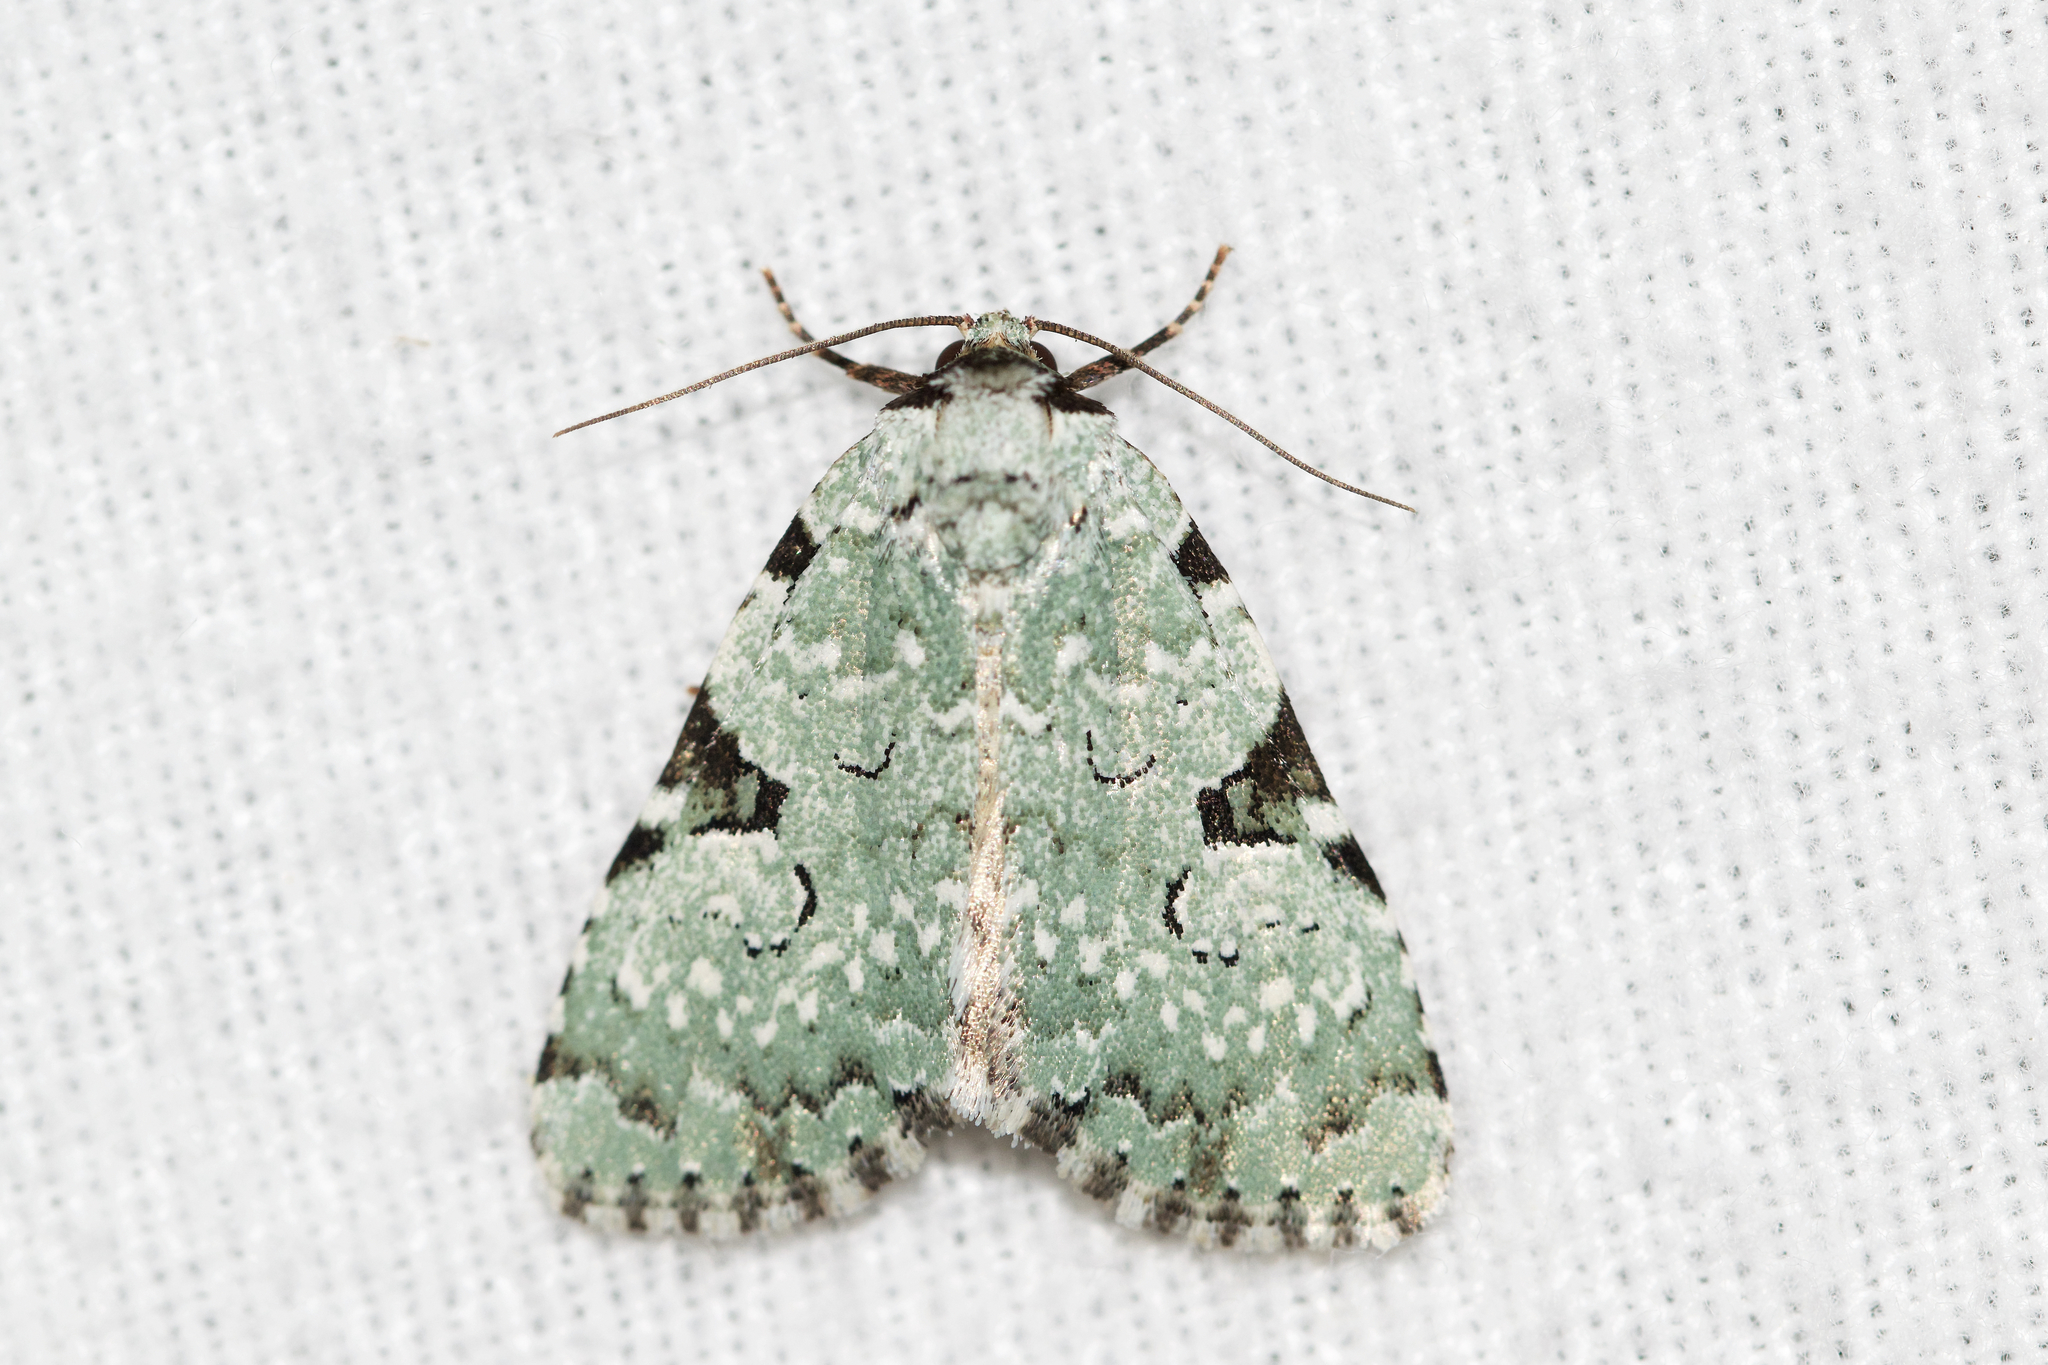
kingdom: Animalia
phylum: Arthropoda
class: Insecta
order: Lepidoptera
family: Noctuidae
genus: Leuconycta
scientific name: Leuconycta diphteroides
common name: Green leuconycta moth
